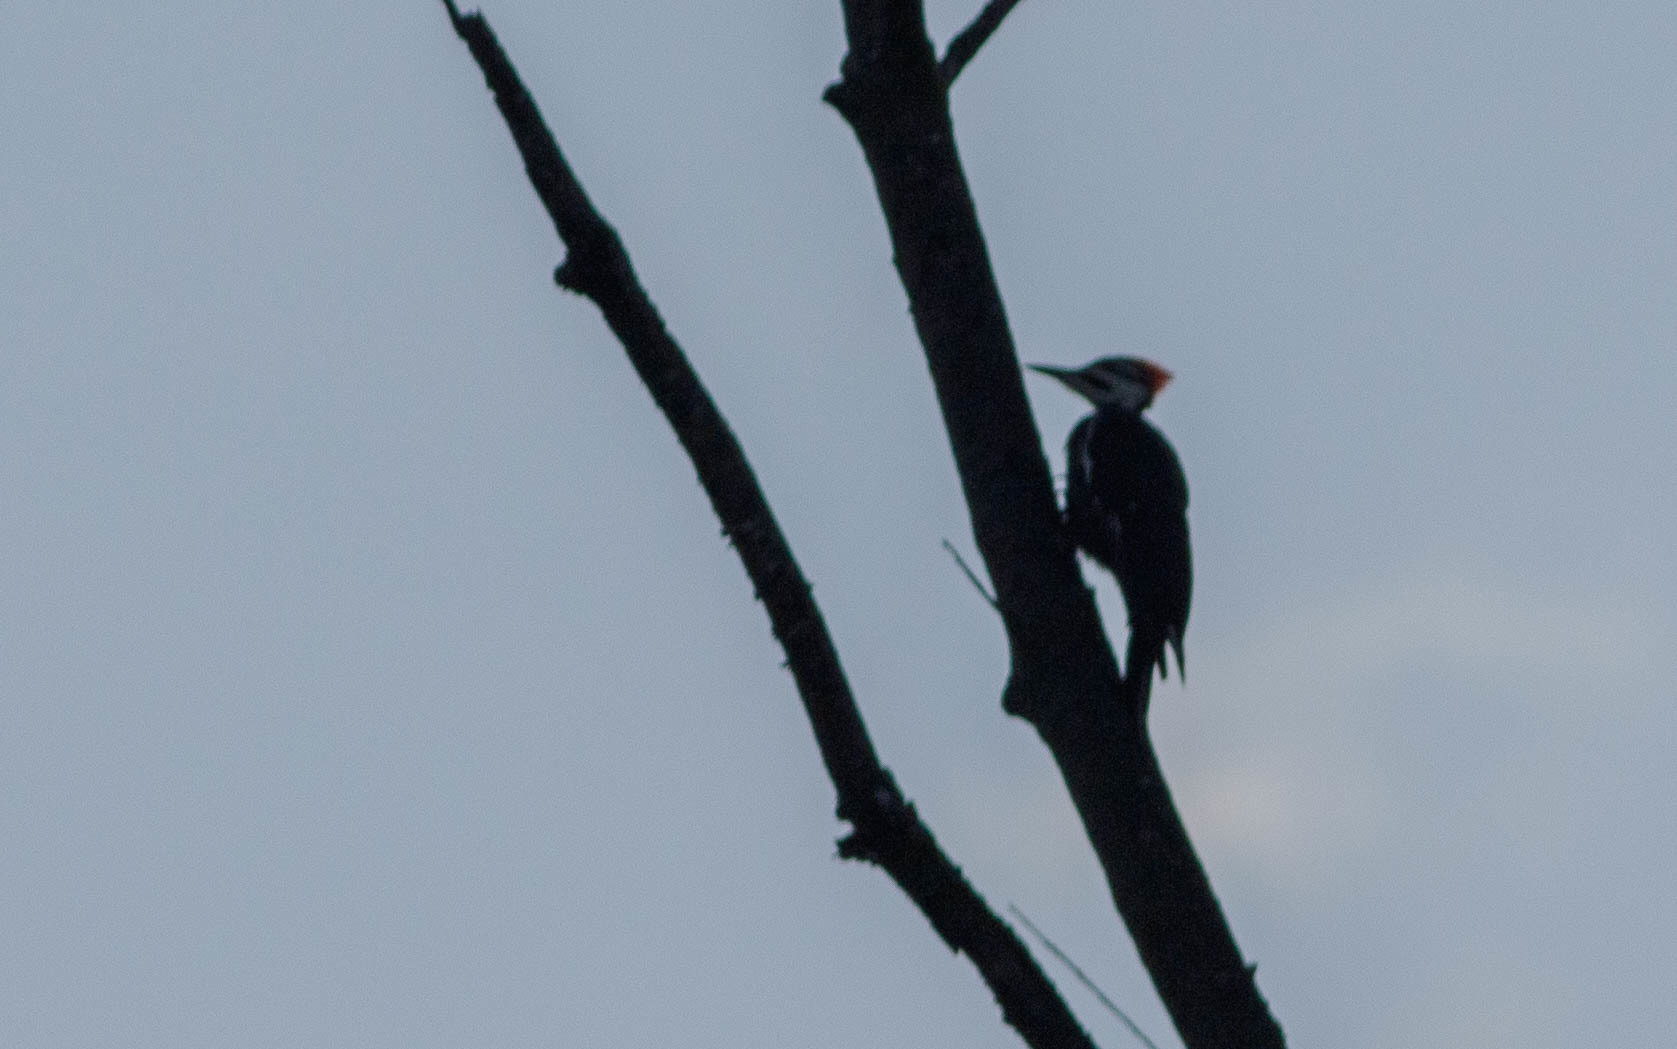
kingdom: Animalia
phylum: Chordata
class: Aves
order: Piciformes
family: Picidae
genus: Dryocopus
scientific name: Dryocopus pileatus
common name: Pileated woodpecker
